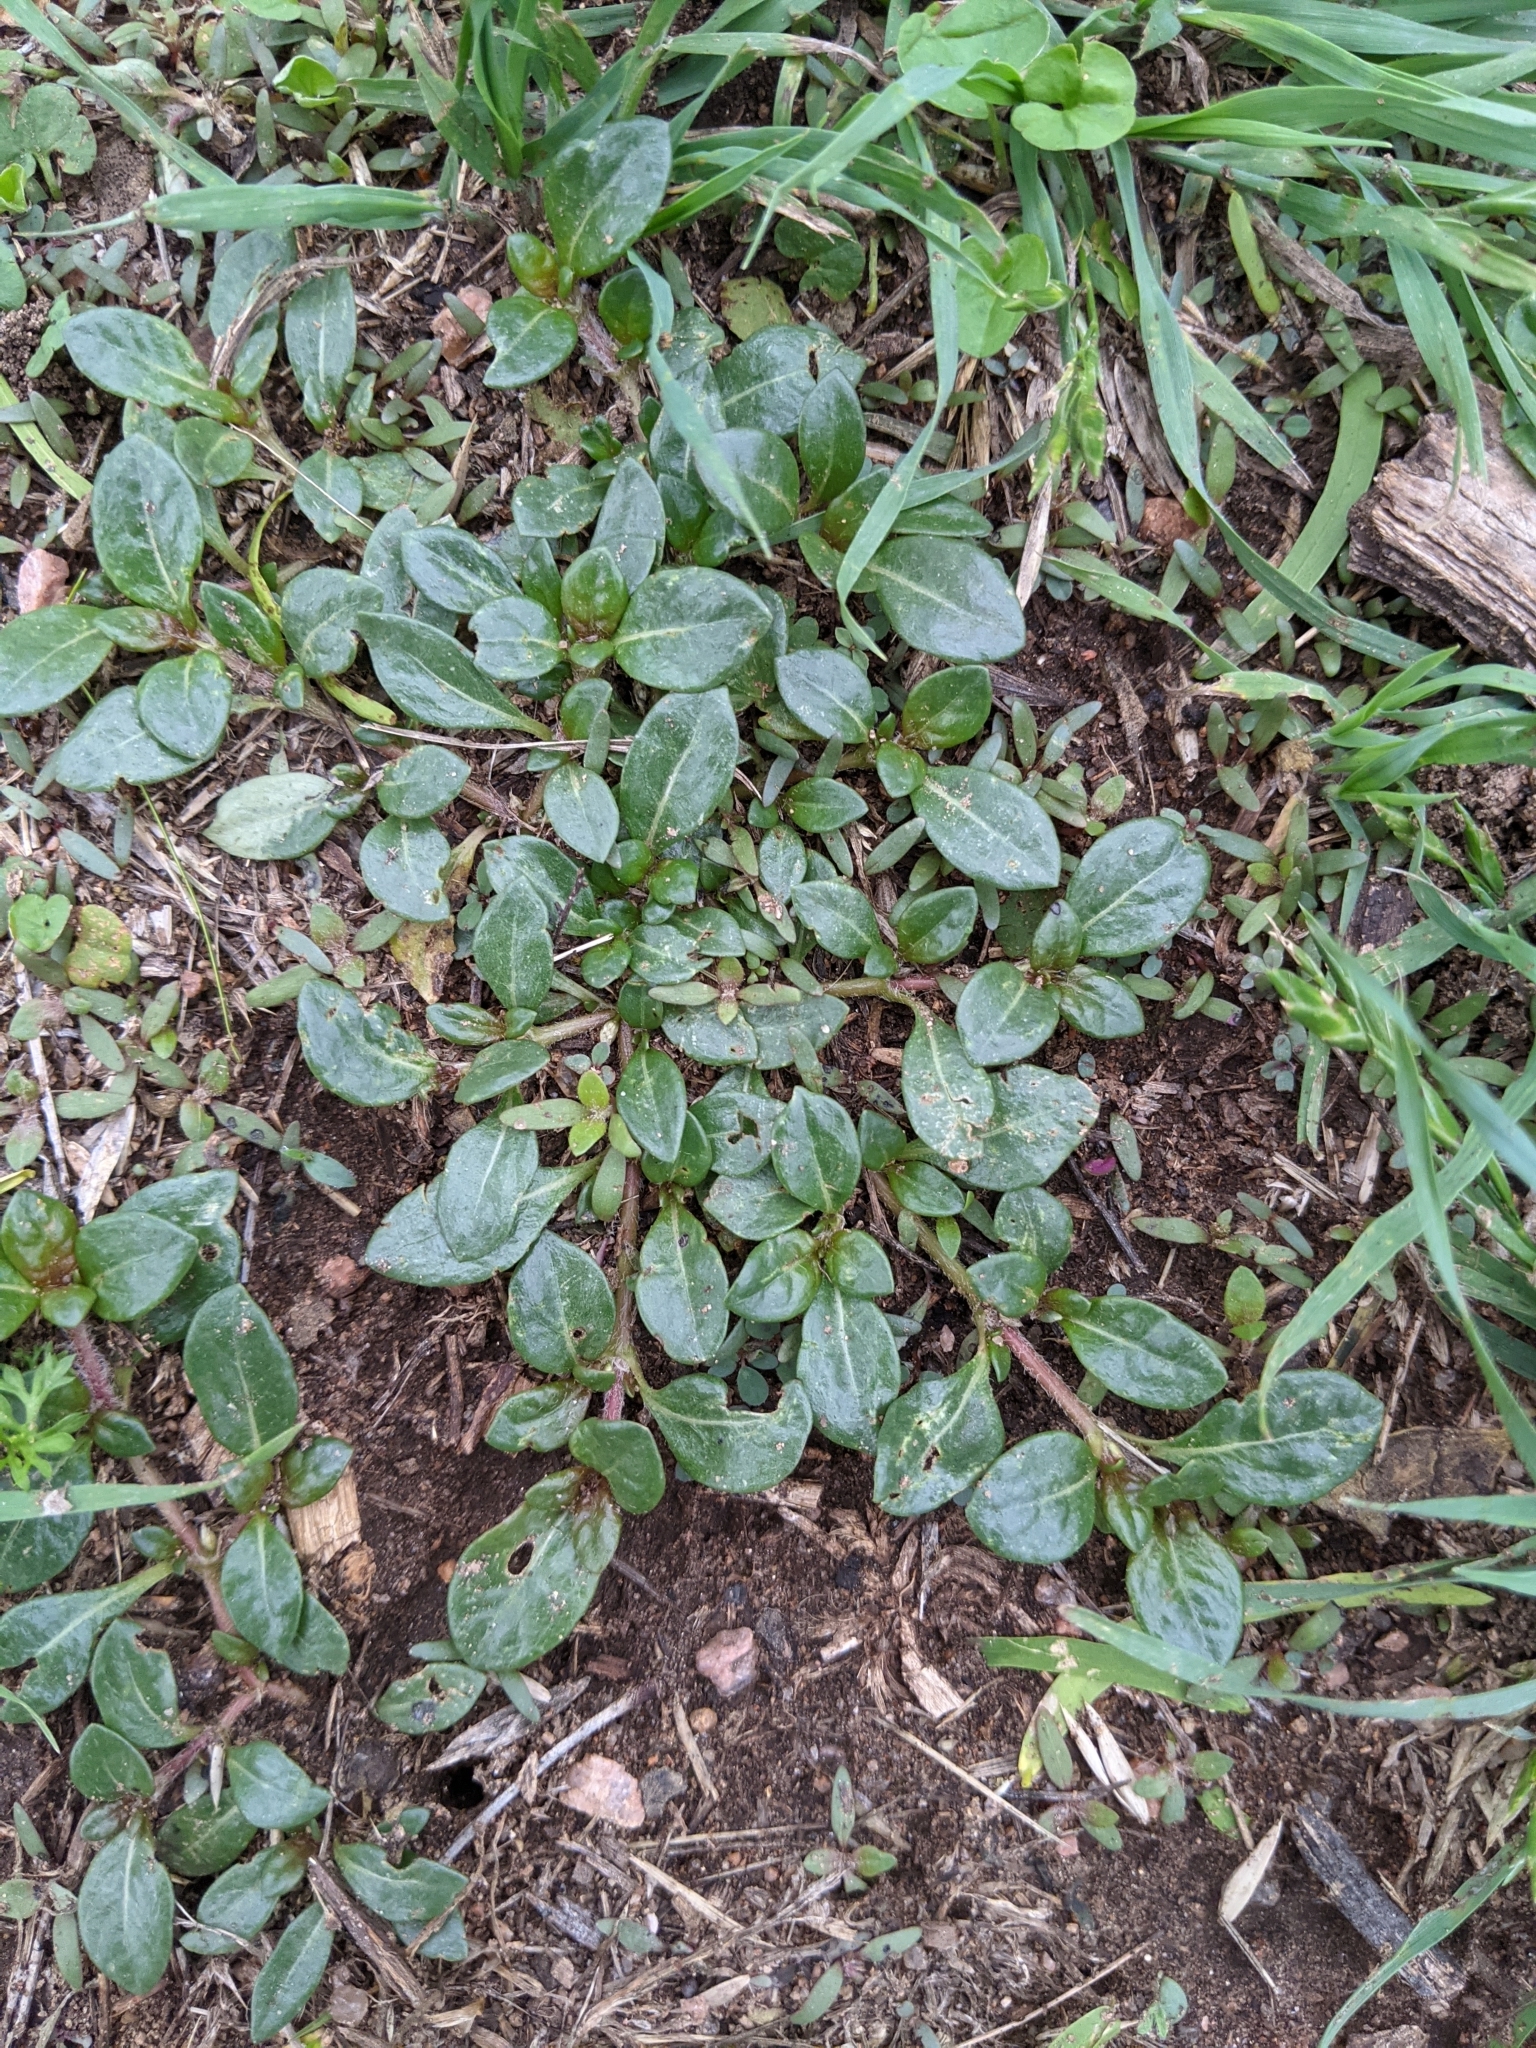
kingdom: Plantae
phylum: Tracheophyta
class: Magnoliopsida
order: Caryophyllales
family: Amaranthaceae
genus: Alternanthera
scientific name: Alternanthera caracasana
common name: Washerwoman
